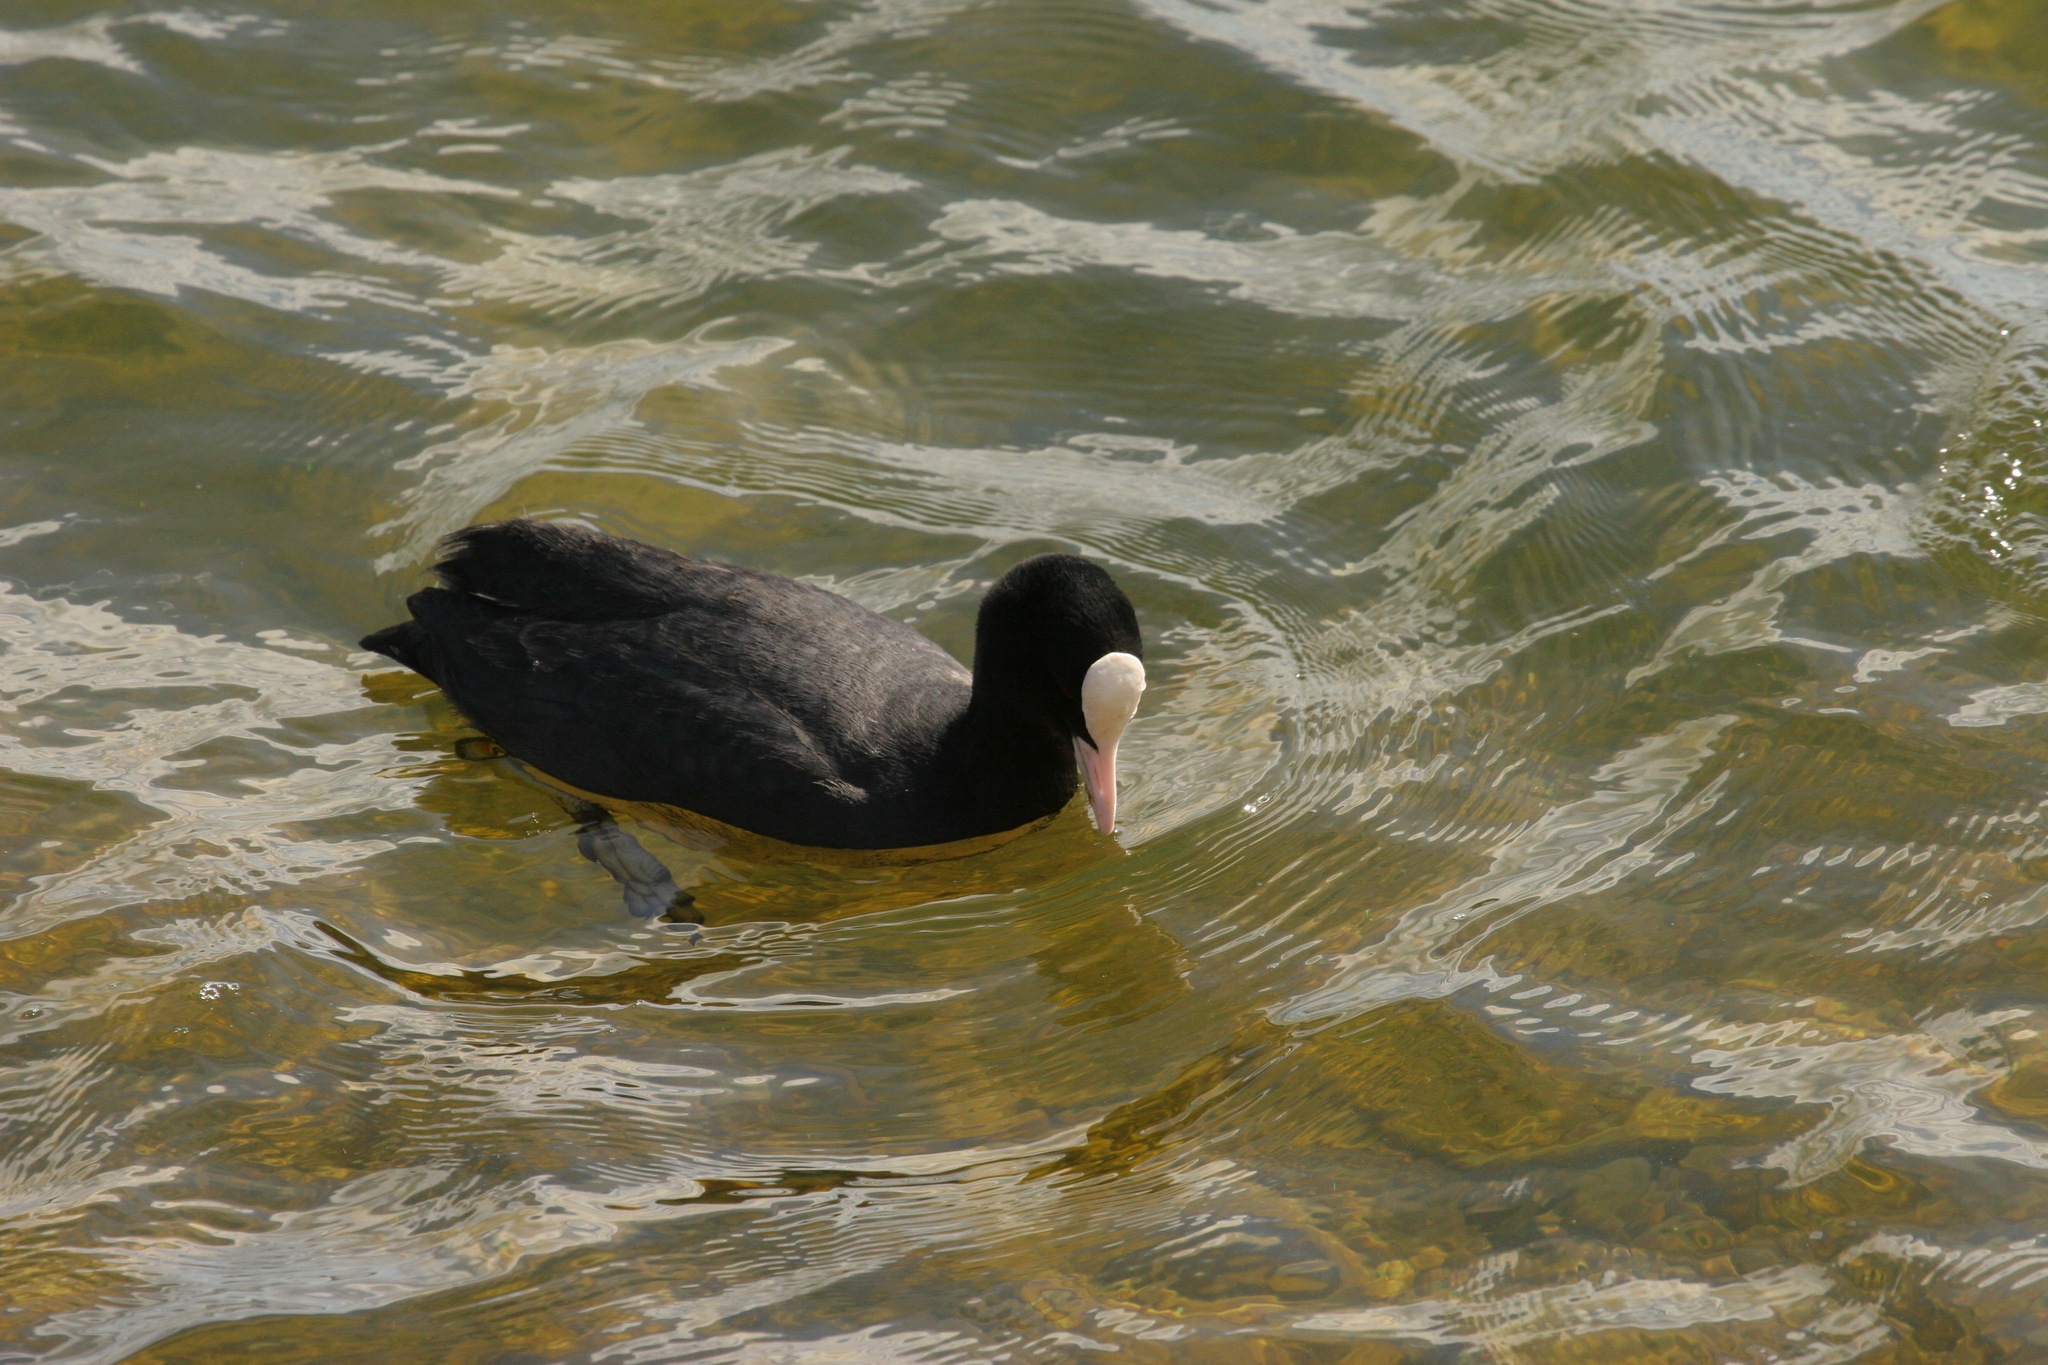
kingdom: Animalia
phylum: Chordata
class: Aves
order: Gruiformes
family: Rallidae
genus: Fulica
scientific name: Fulica atra
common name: Eurasian coot
